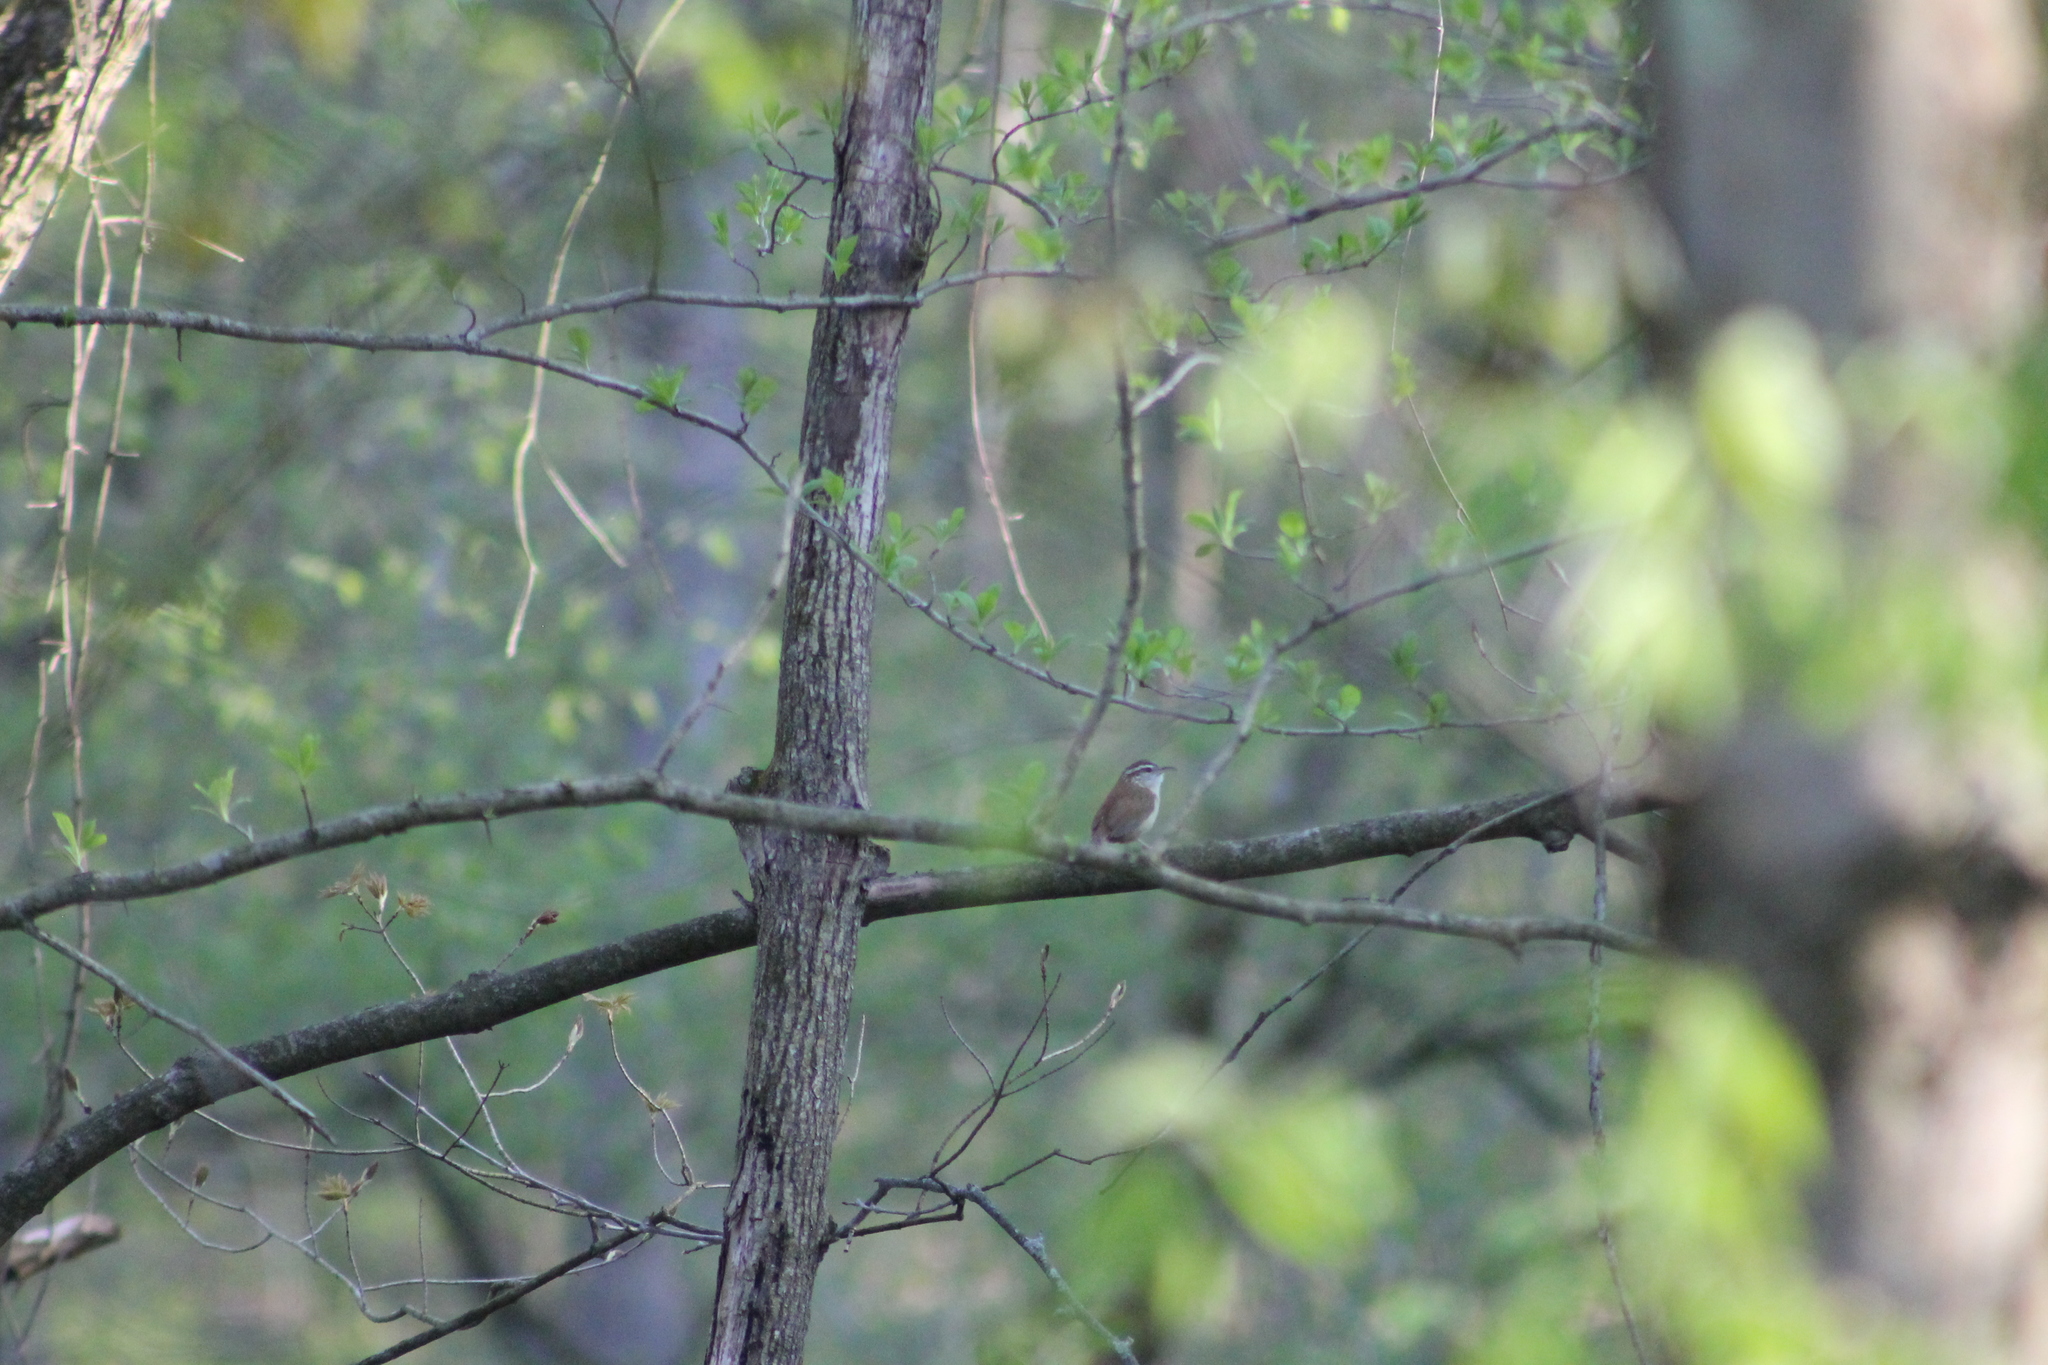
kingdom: Animalia
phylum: Chordata
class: Aves
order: Passeriformes
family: Troglodytidae
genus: Thryothorus
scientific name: Thryothorus ludovicianus
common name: Carolina wren
